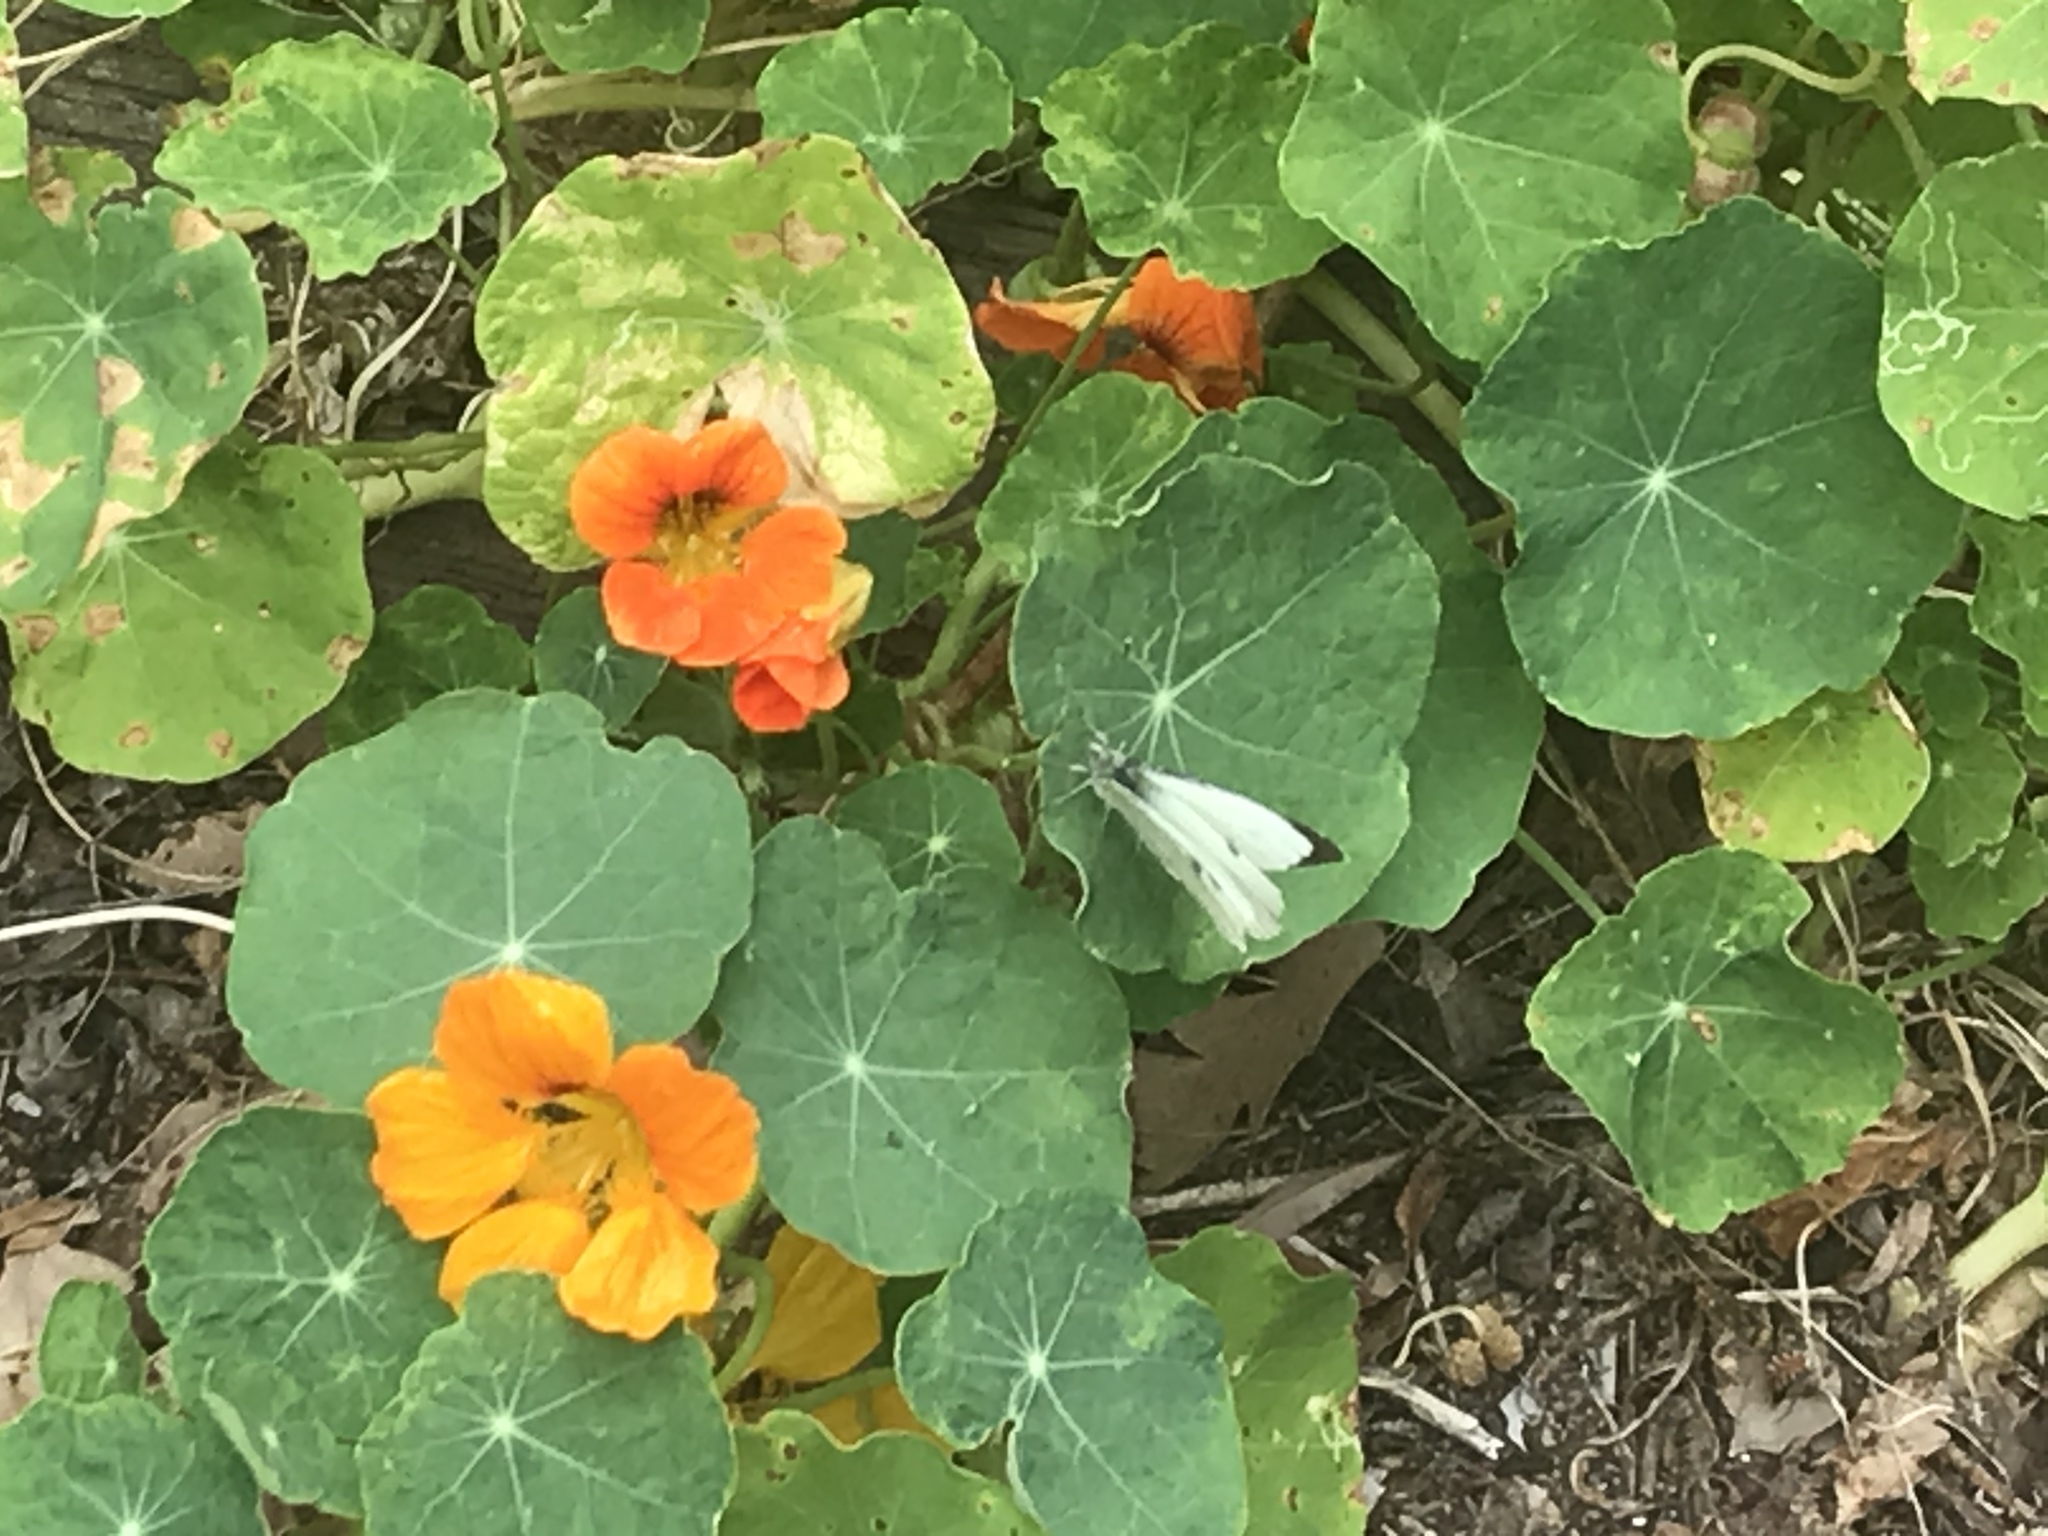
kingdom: Animalia
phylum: Arthropoda
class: Insecta
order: Lepidoptera
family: Pieridae
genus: Pieris
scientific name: Pieris brassicae
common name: Large white
